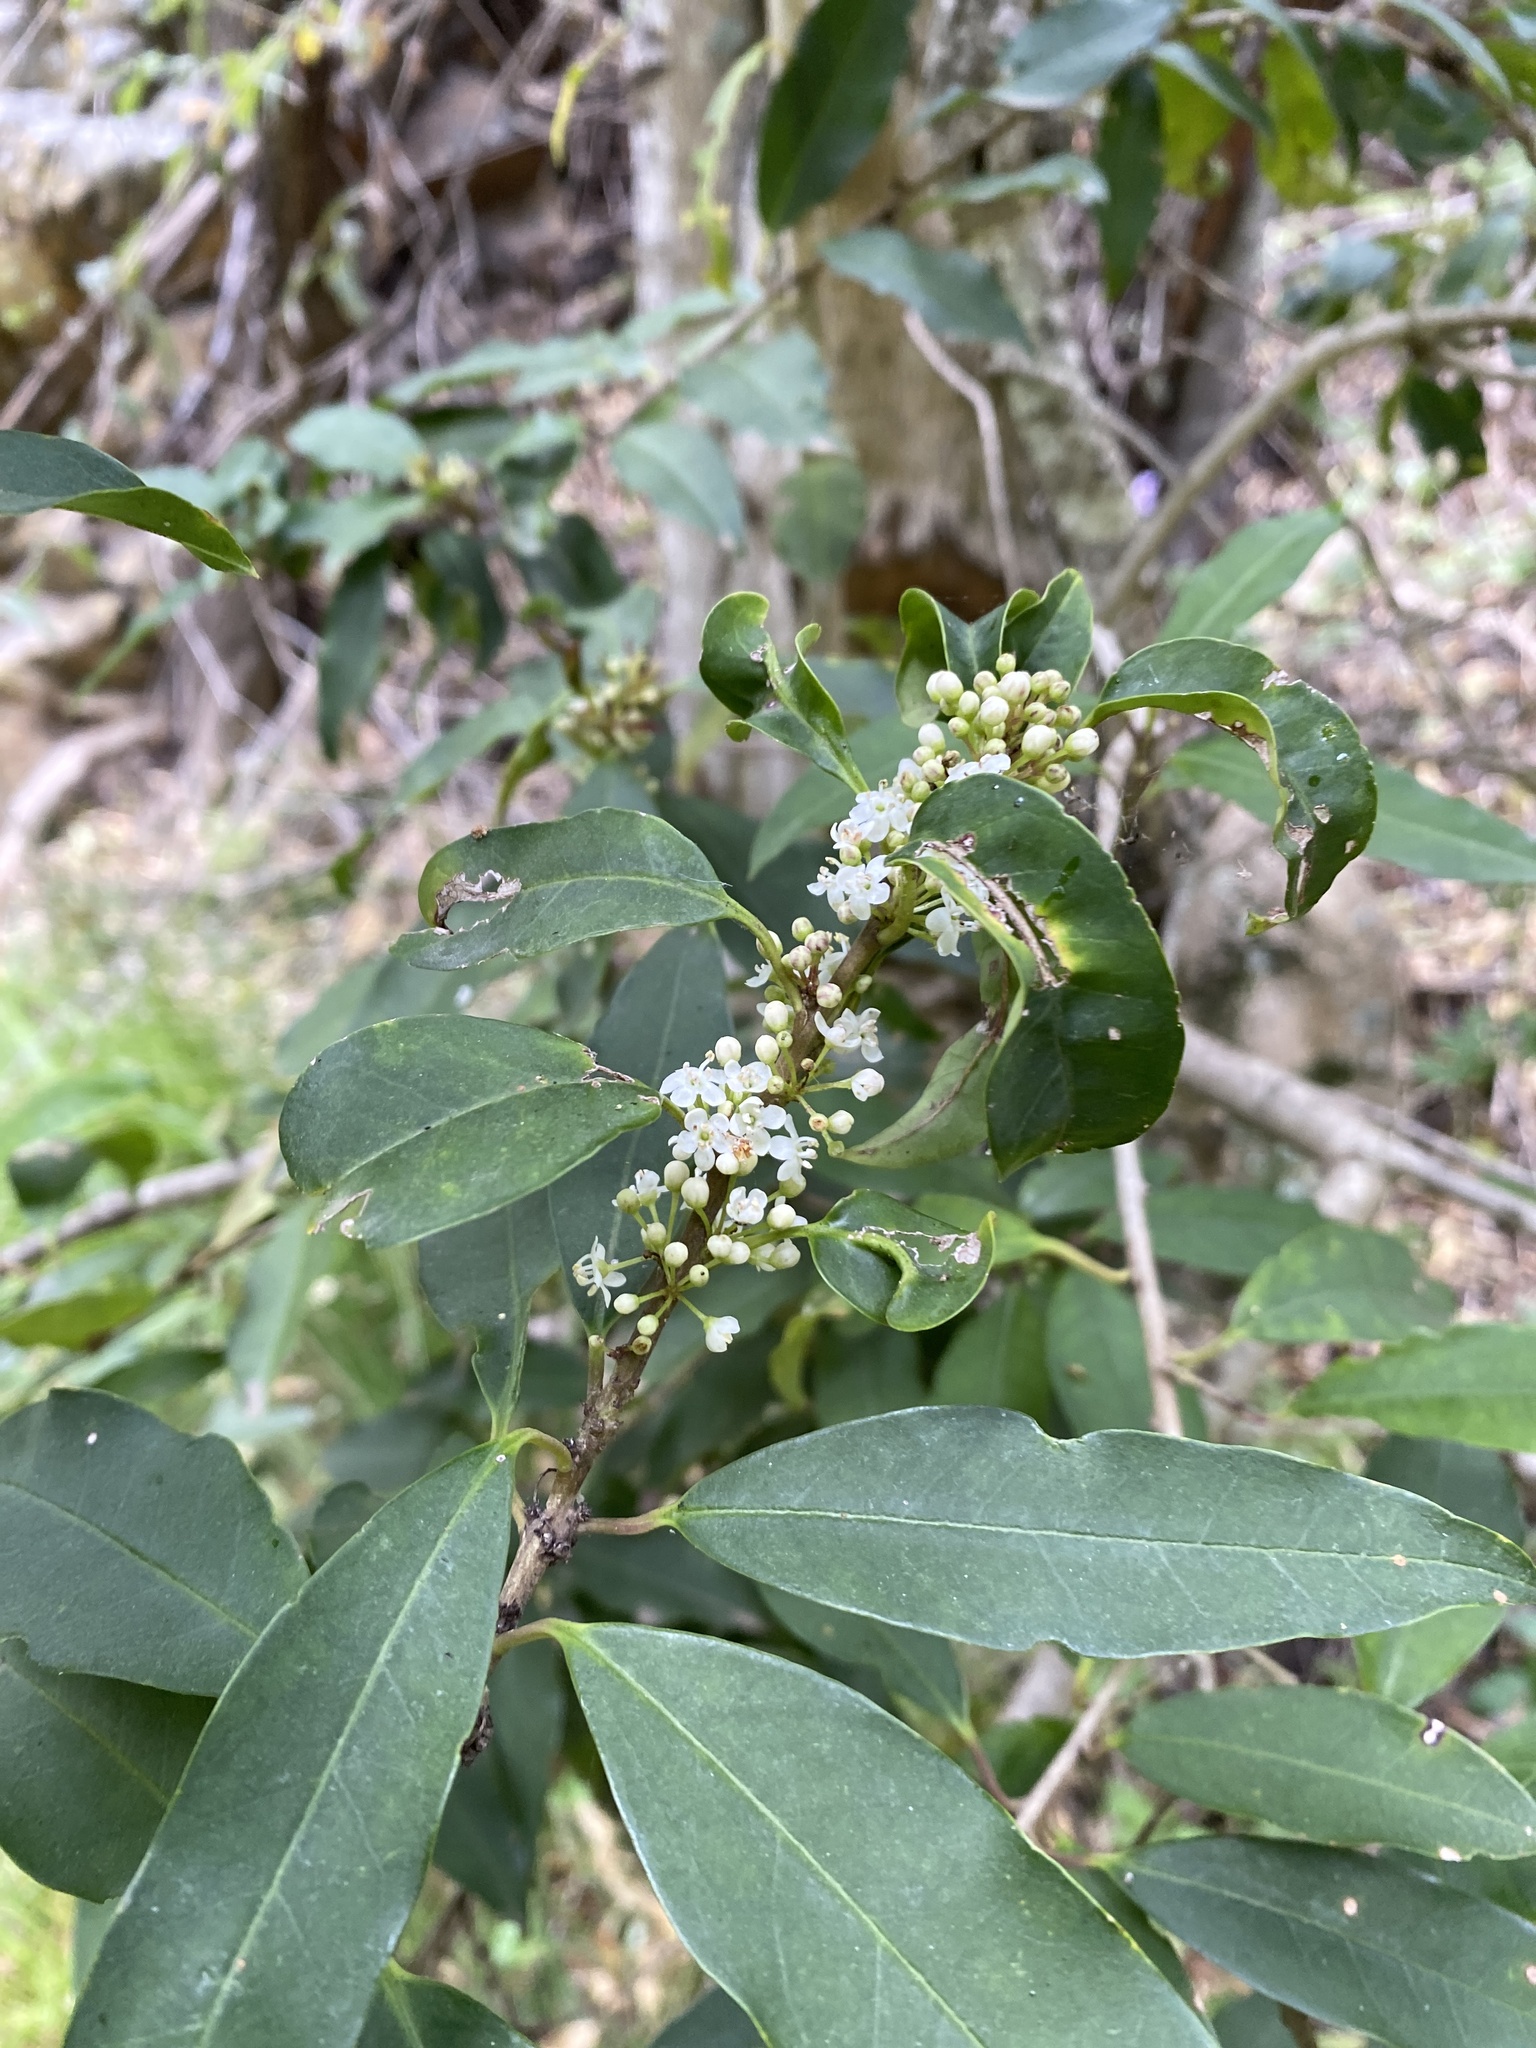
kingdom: Plantae
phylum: Tracheophyta
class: Magnoliopsida
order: Aquifoliales
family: Aquifoliaceae
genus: Ilex
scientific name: Ilex mitis
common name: African holly
